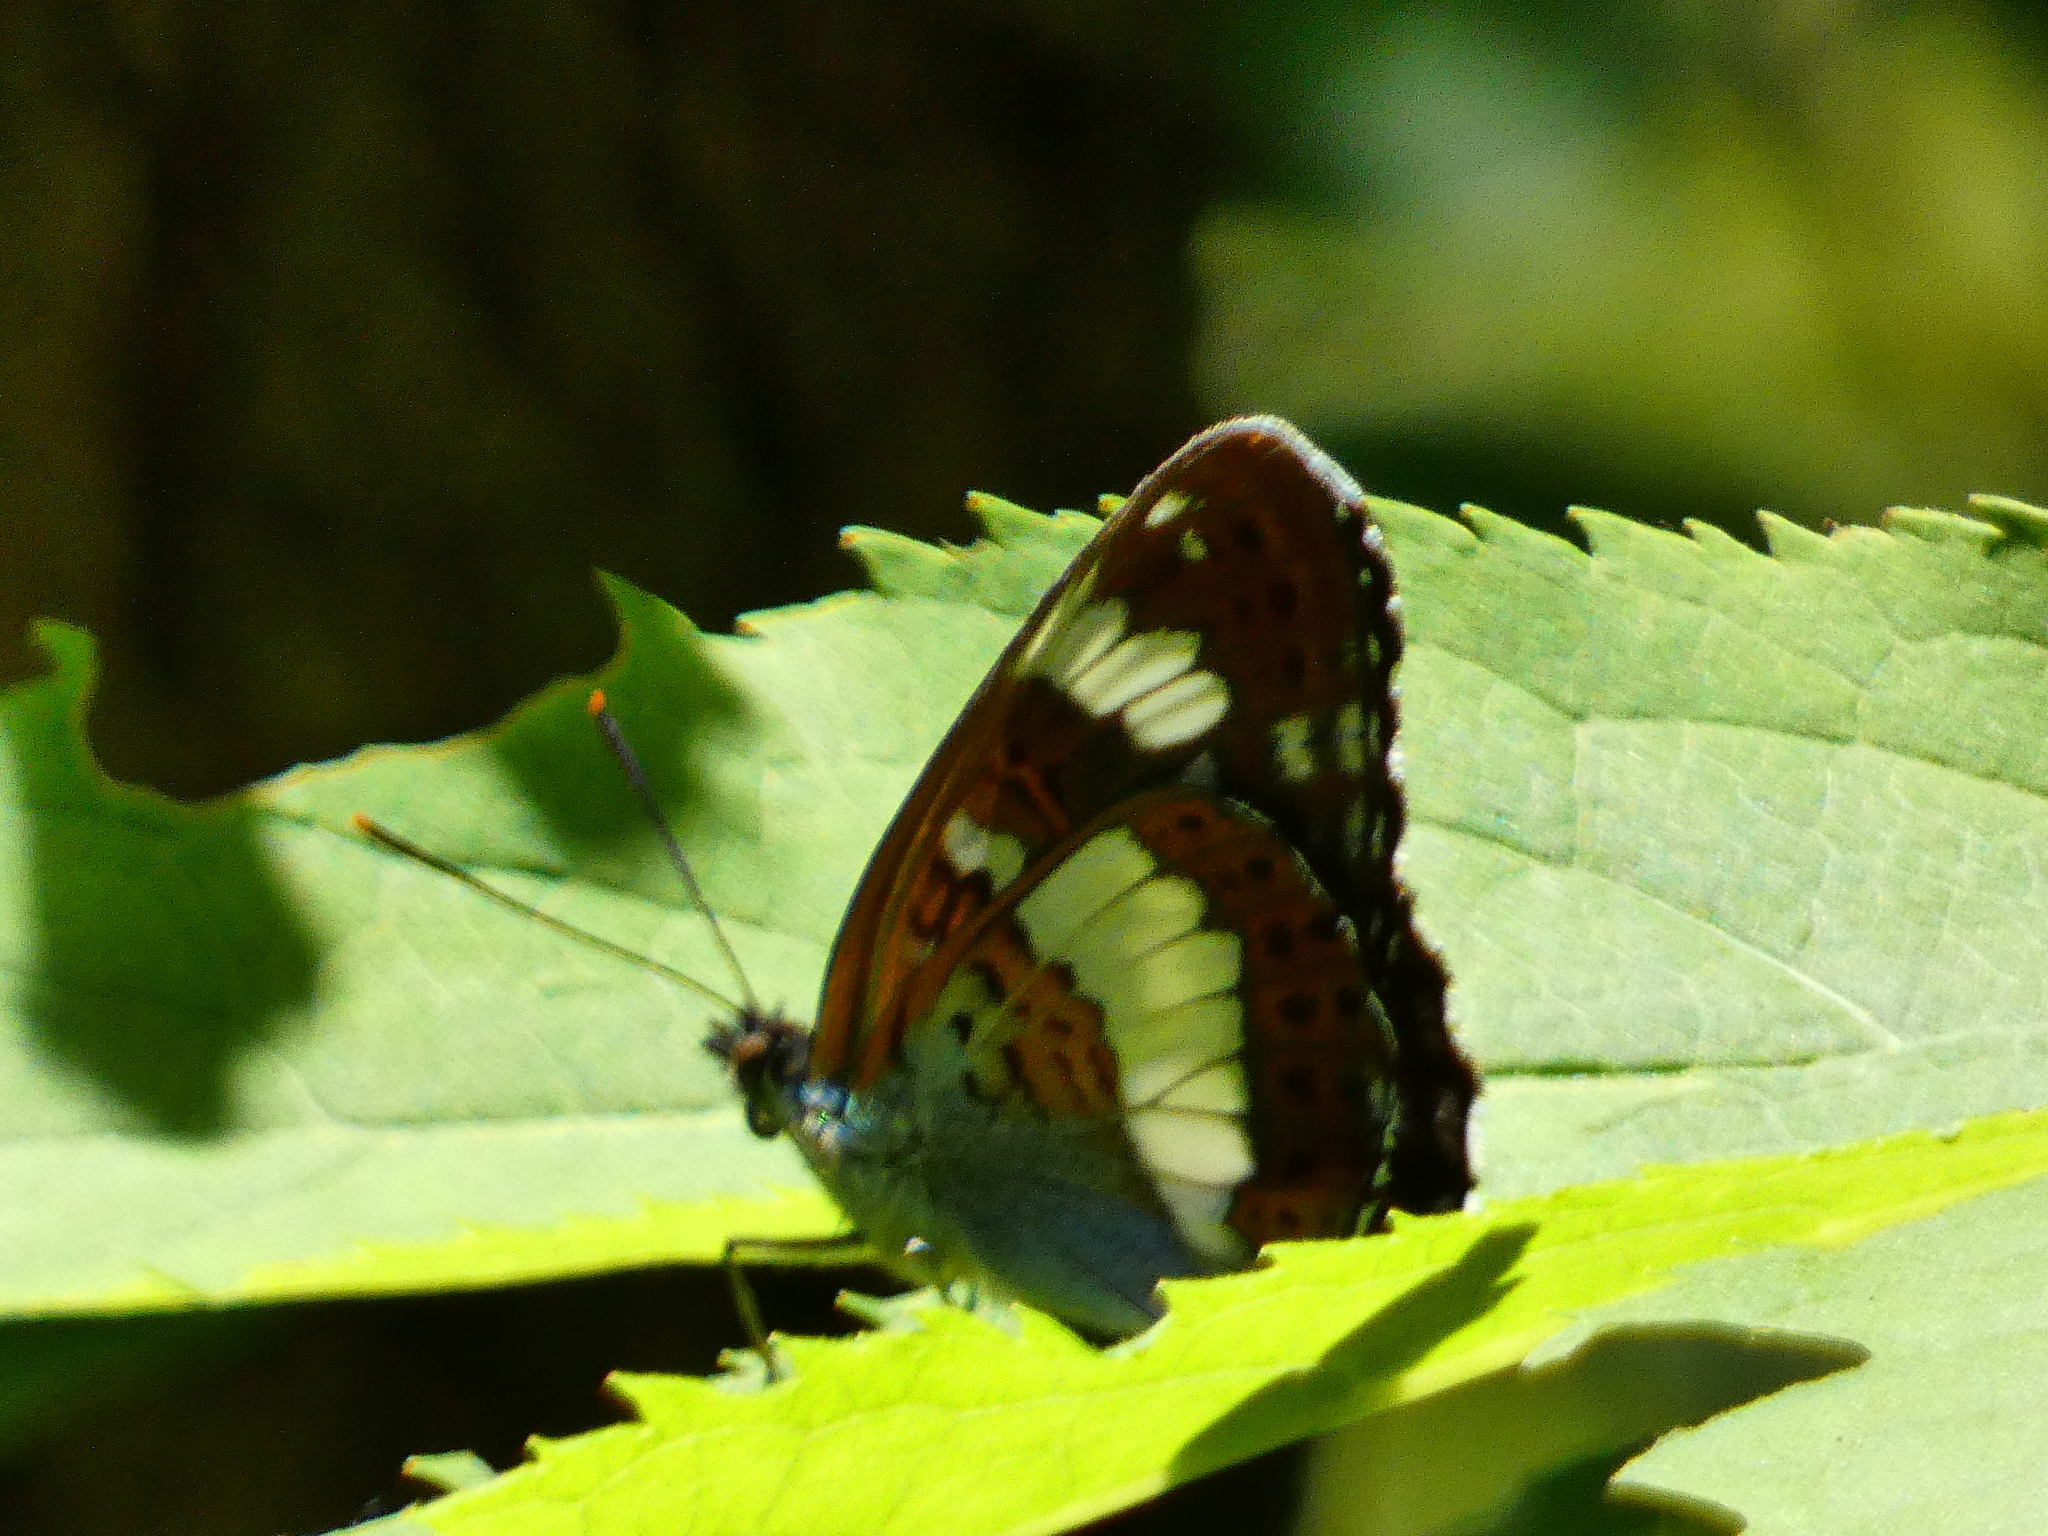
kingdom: Animalia
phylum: Arthropoda
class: Insecta
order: Lepidoptera
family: Nymphalidae
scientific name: Nymphalidae
